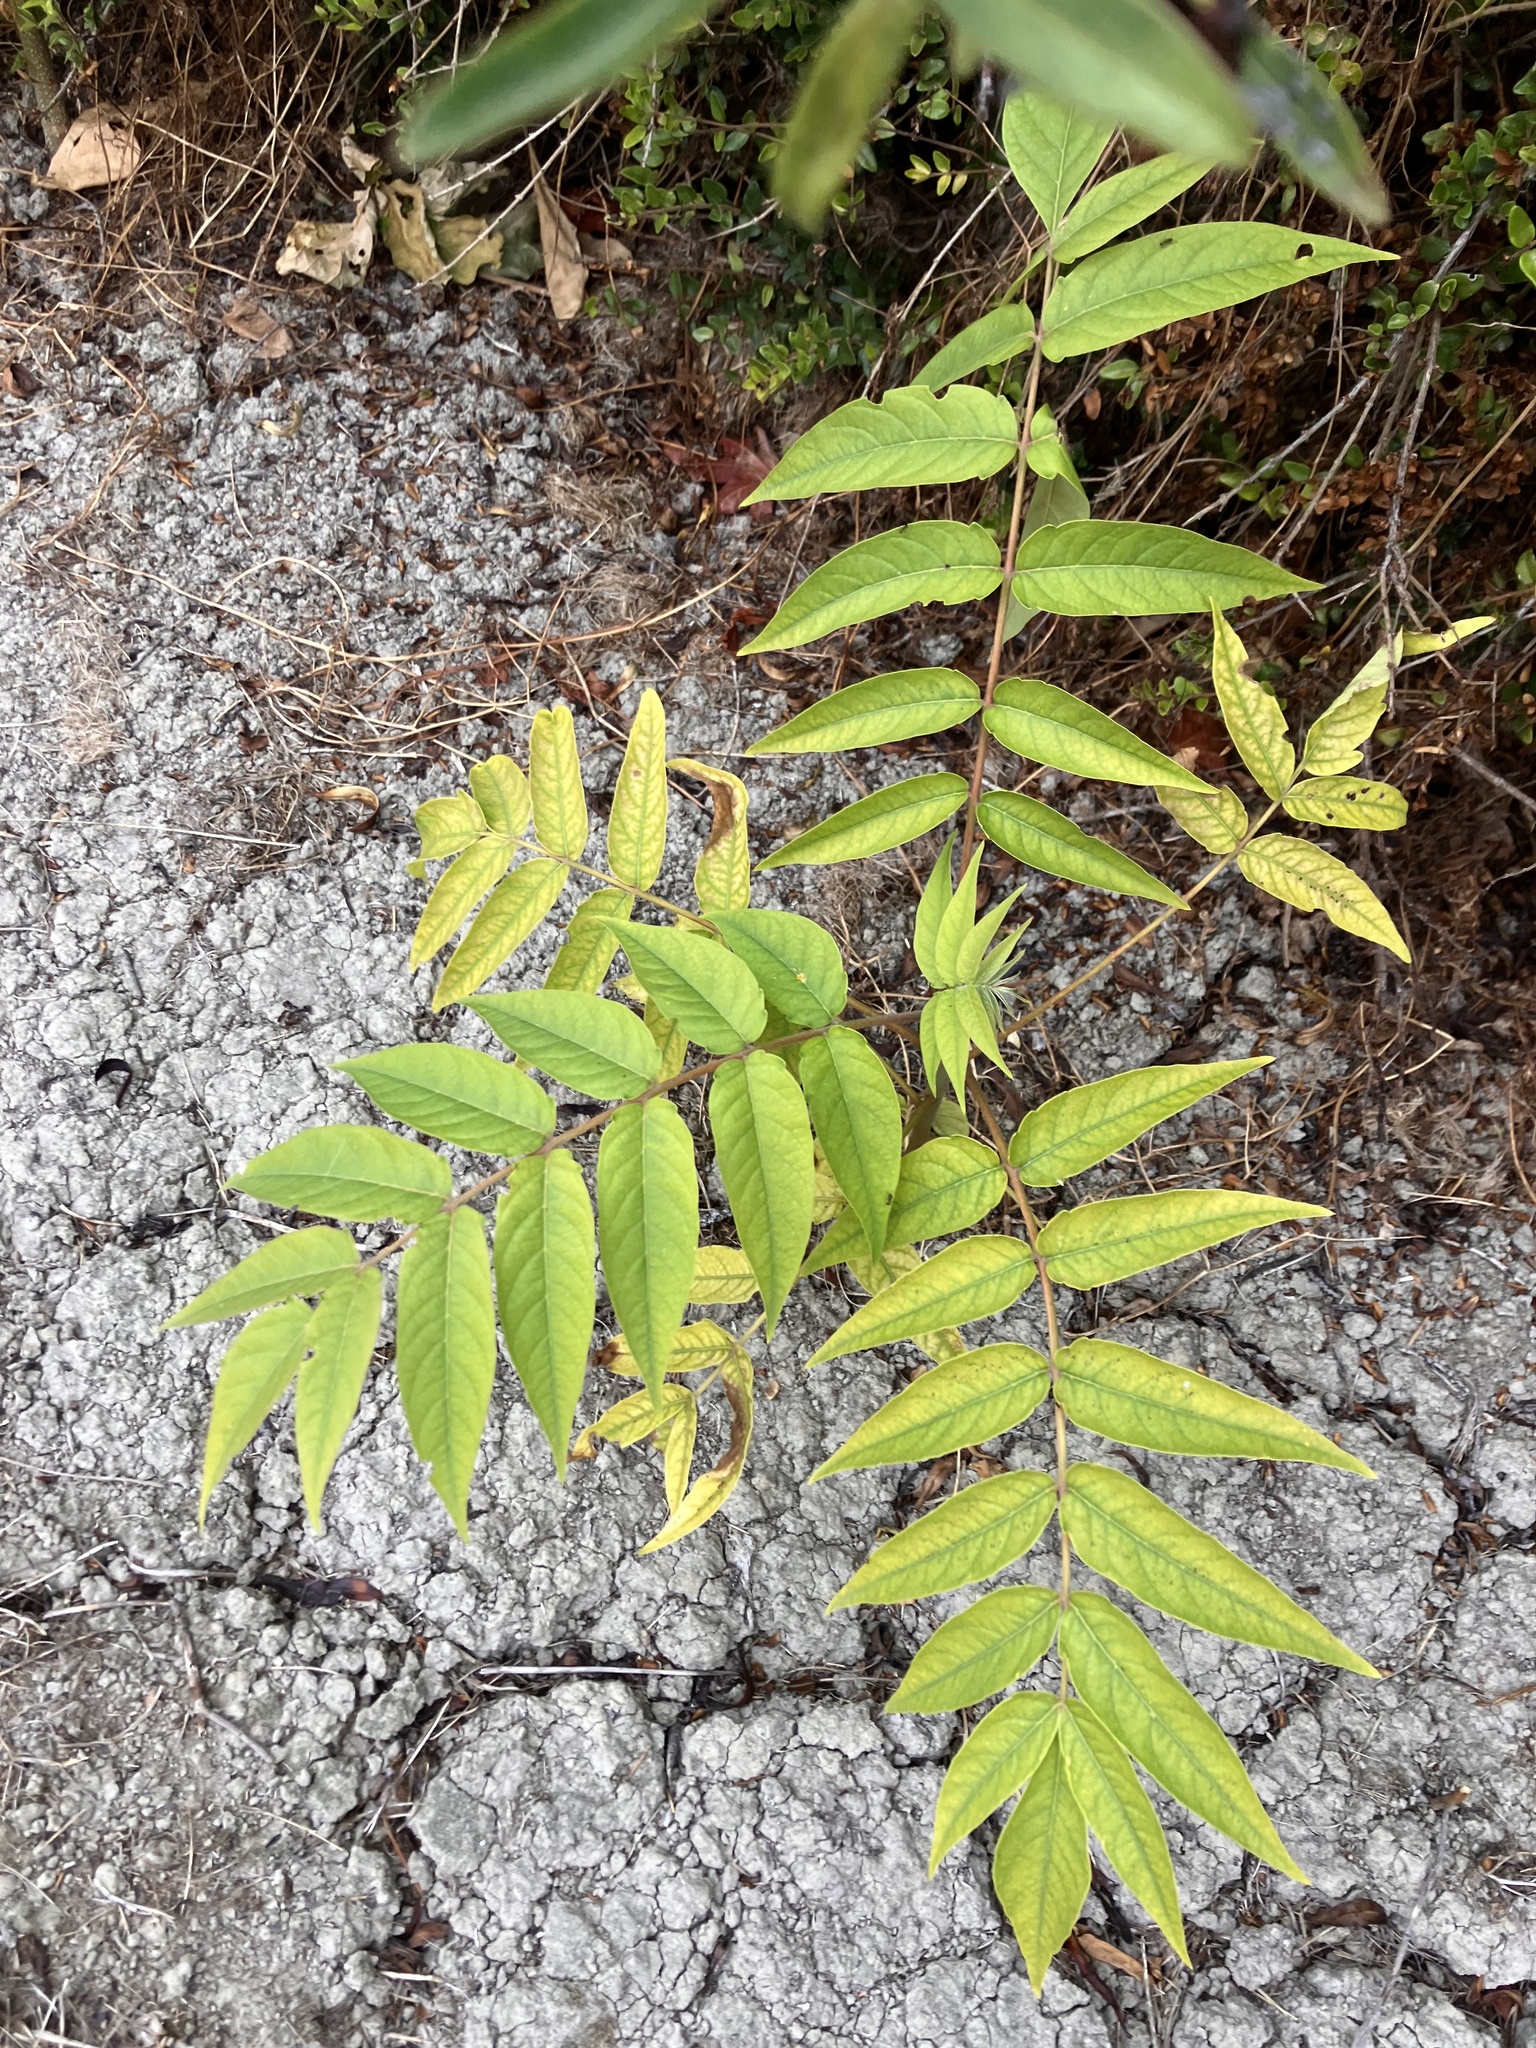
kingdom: Plantae
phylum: Tracheophyta
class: Magnoliopsida
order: Sapindales
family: Simaroubaceae
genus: Ailanthus
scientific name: Ailanthus altissima
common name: Tree-of-heaven
